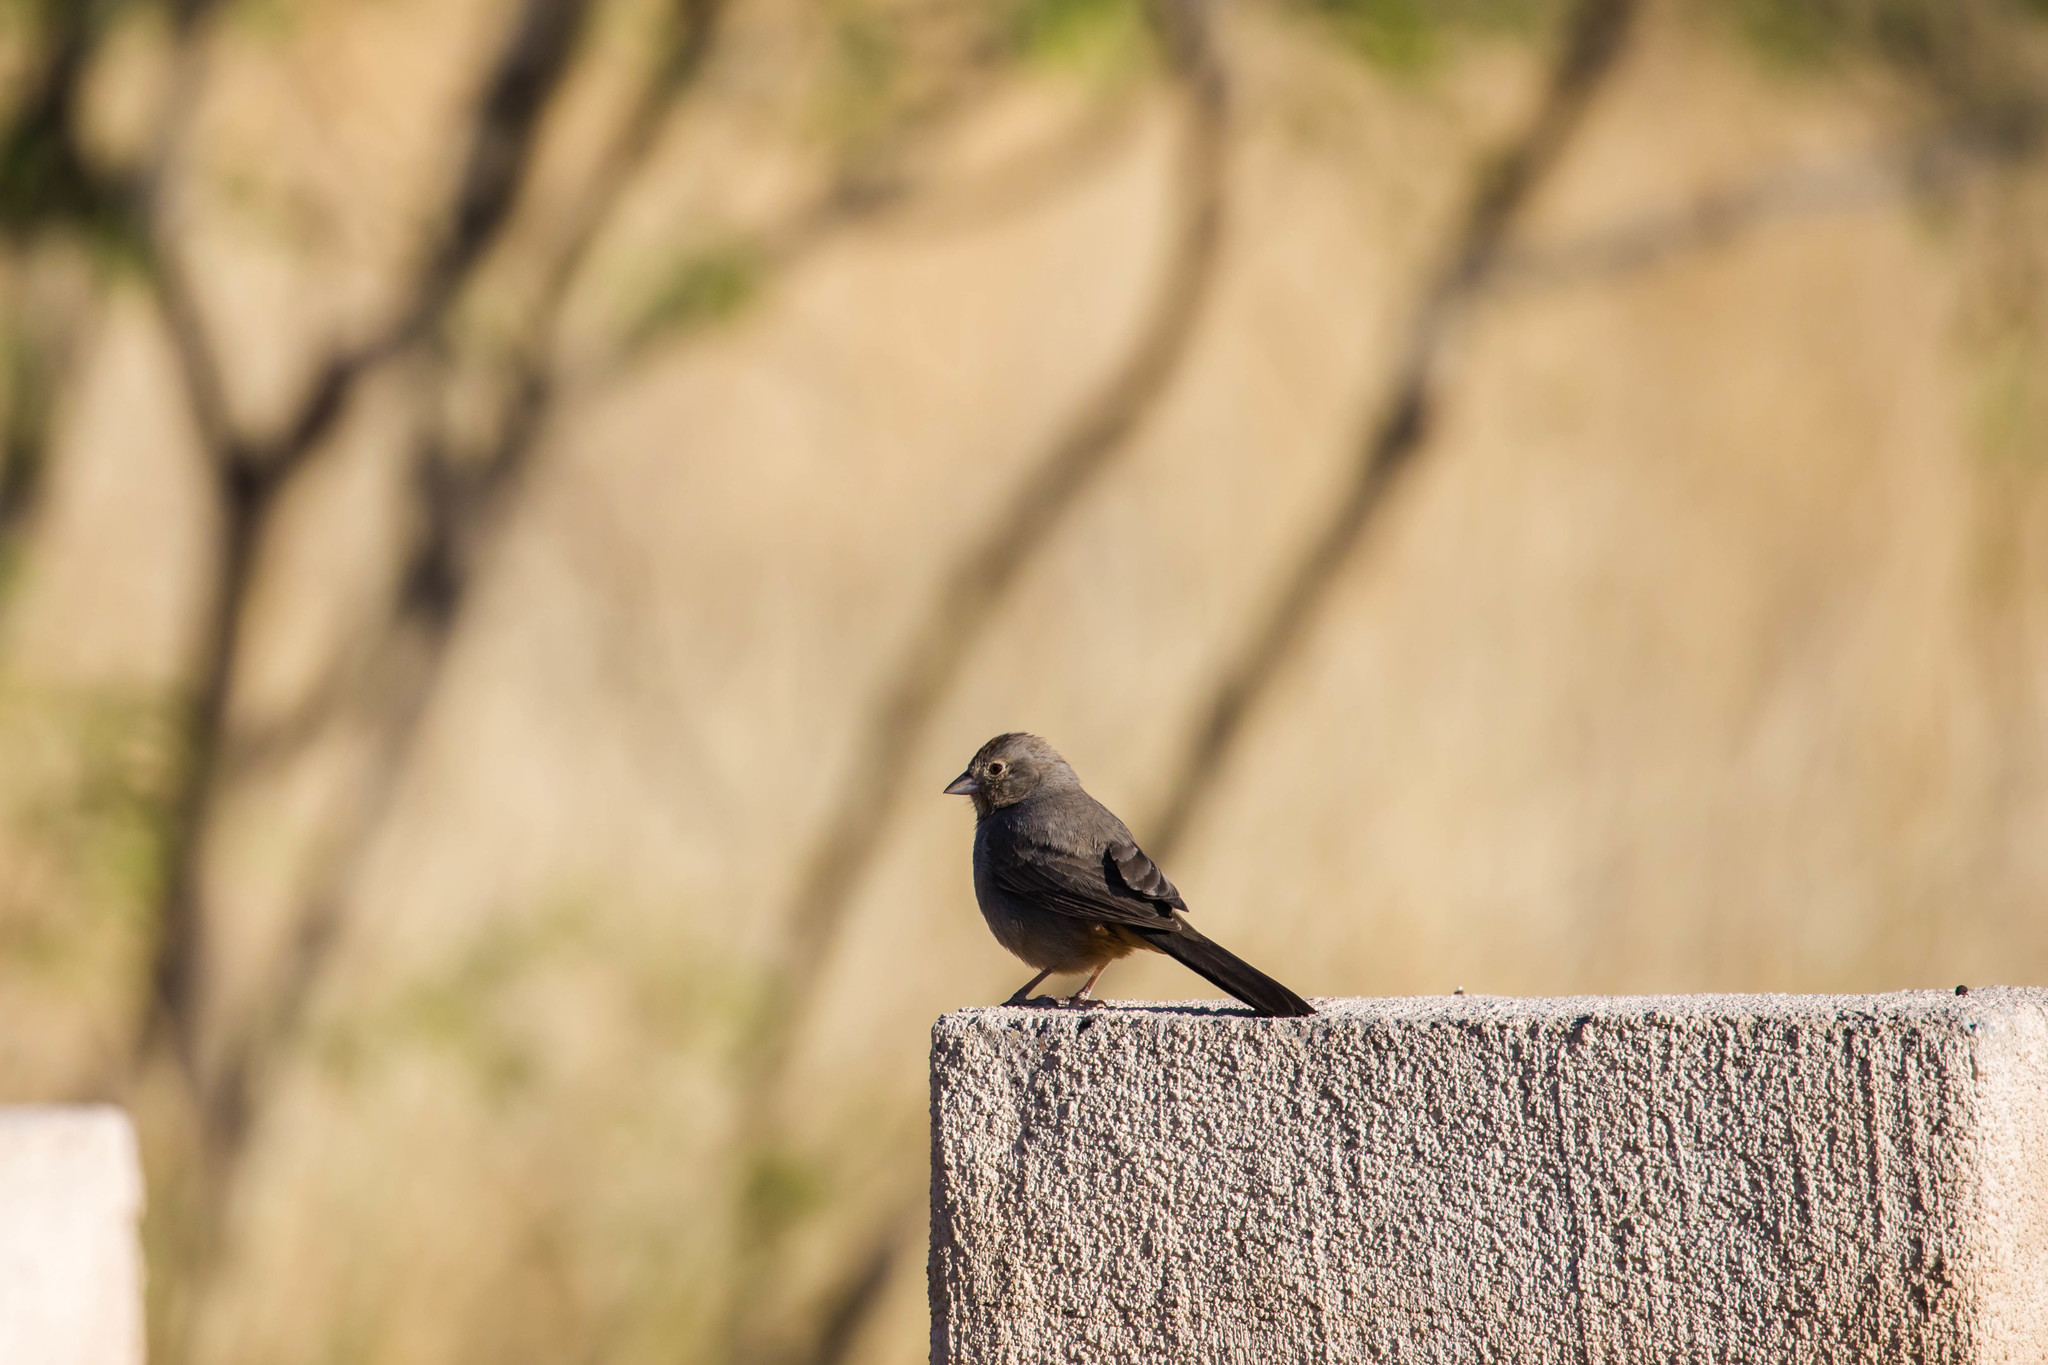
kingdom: Animalia
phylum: Chordata
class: Aves
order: Passeriformes
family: Passerellidae
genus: Melozone
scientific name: Melozone fusca
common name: Canyon towhee
